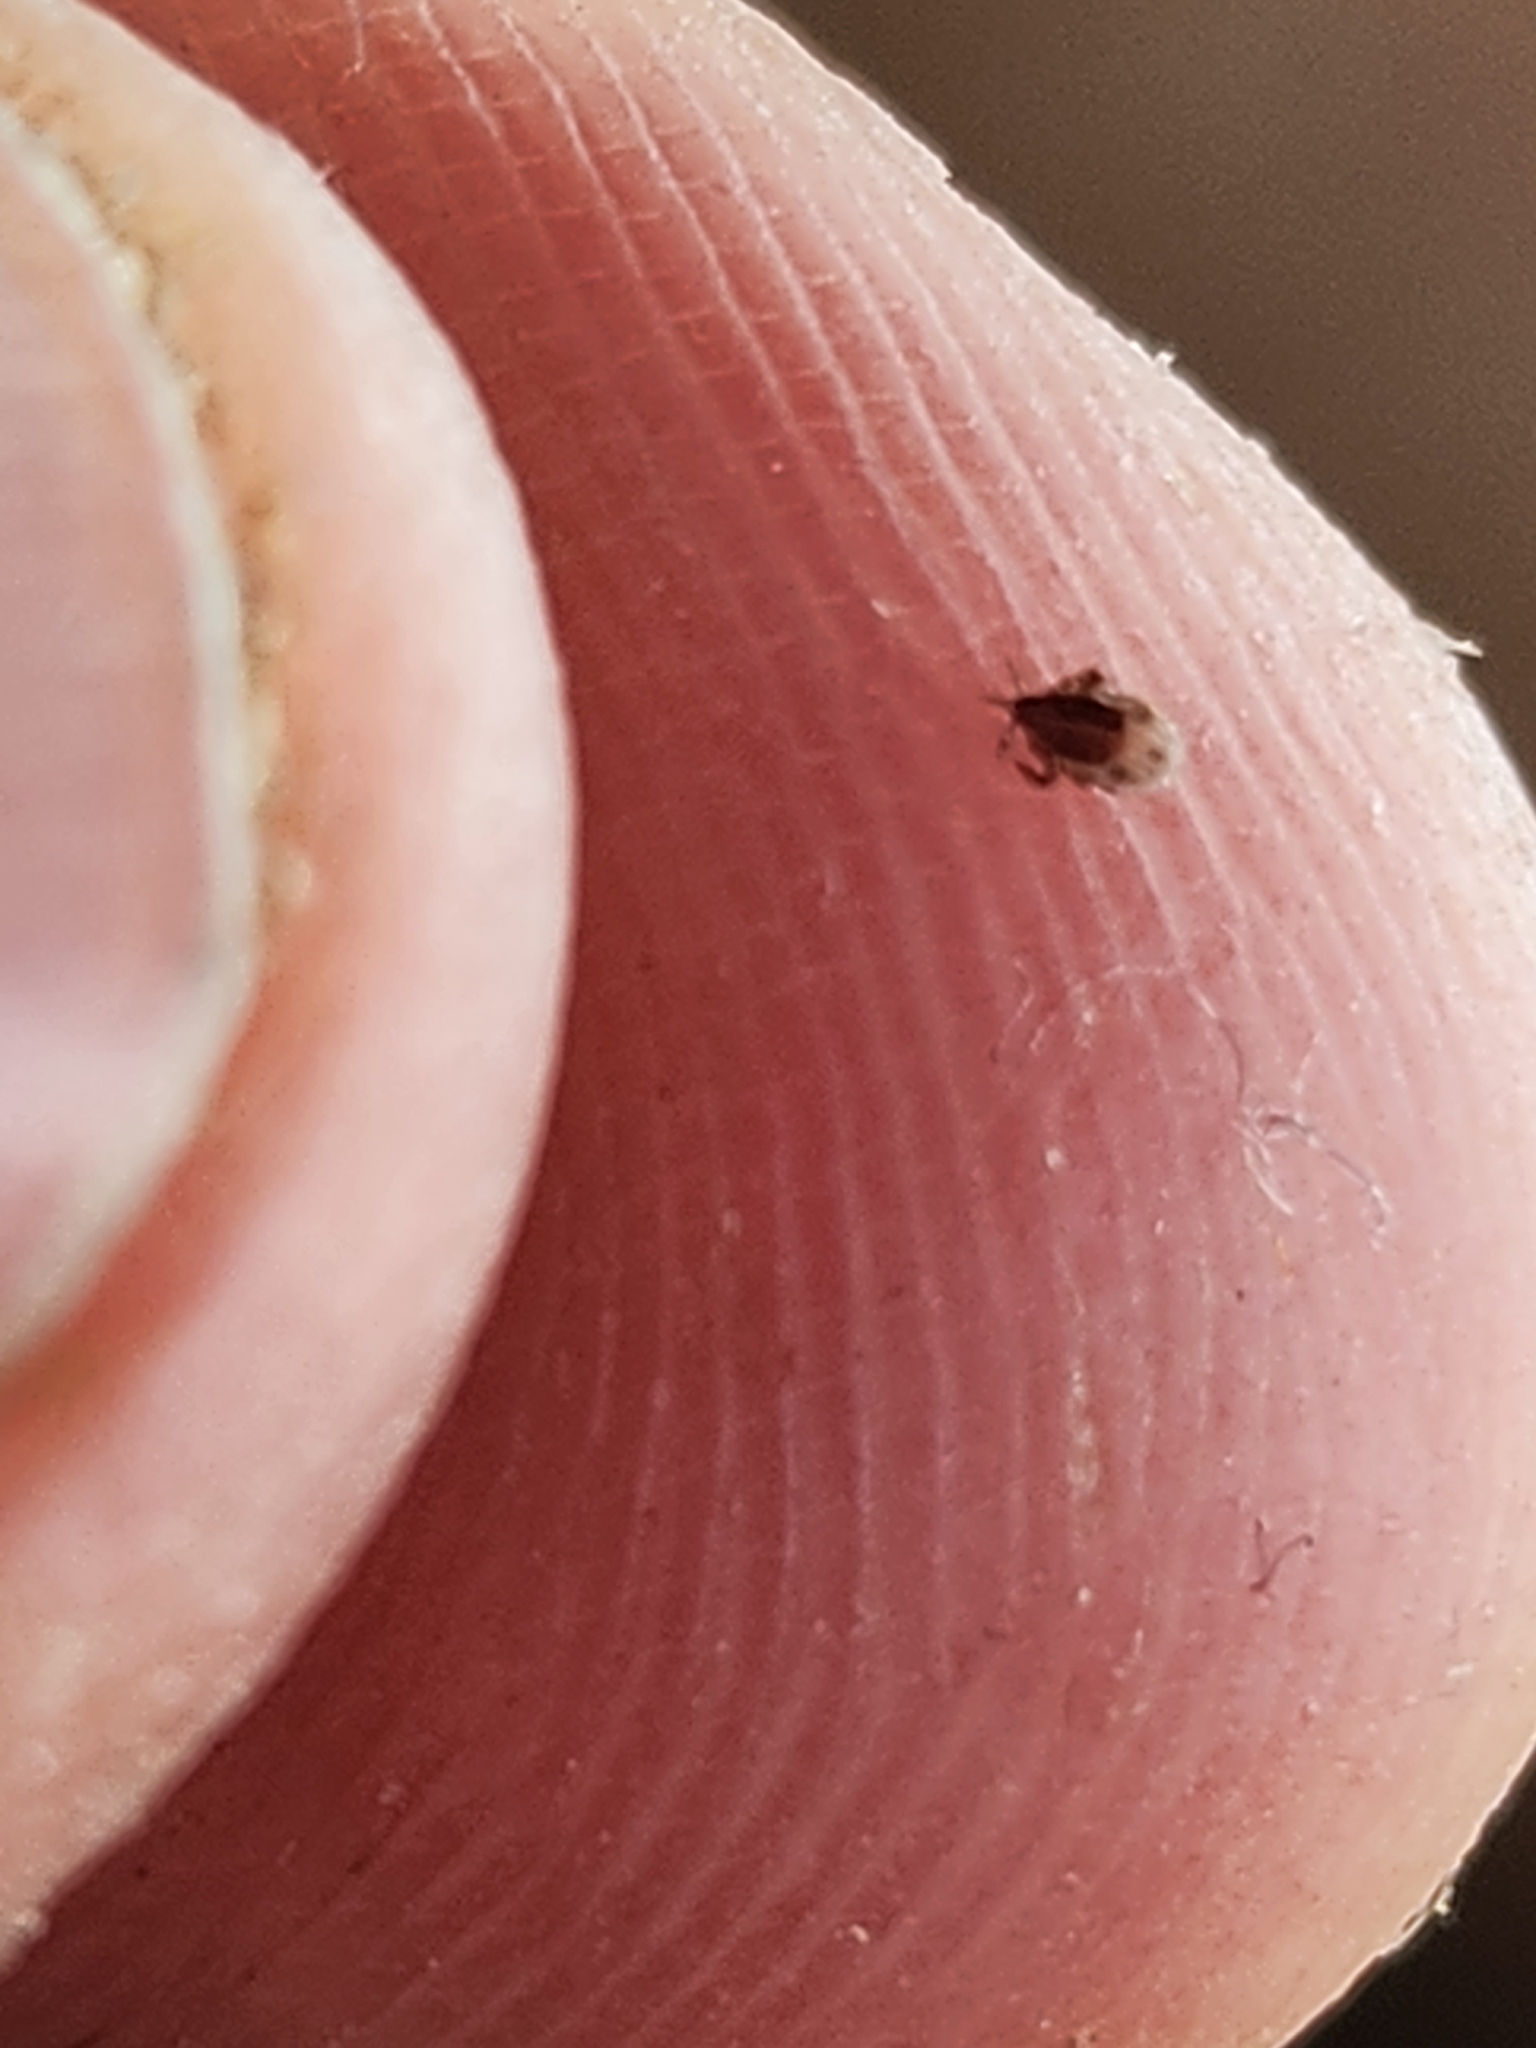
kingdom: Animalia
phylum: Arthropoda
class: Arachnida
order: Ixodida
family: Ixodidae
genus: Ixodes
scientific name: Ixodes scapularis
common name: Black legged tick
